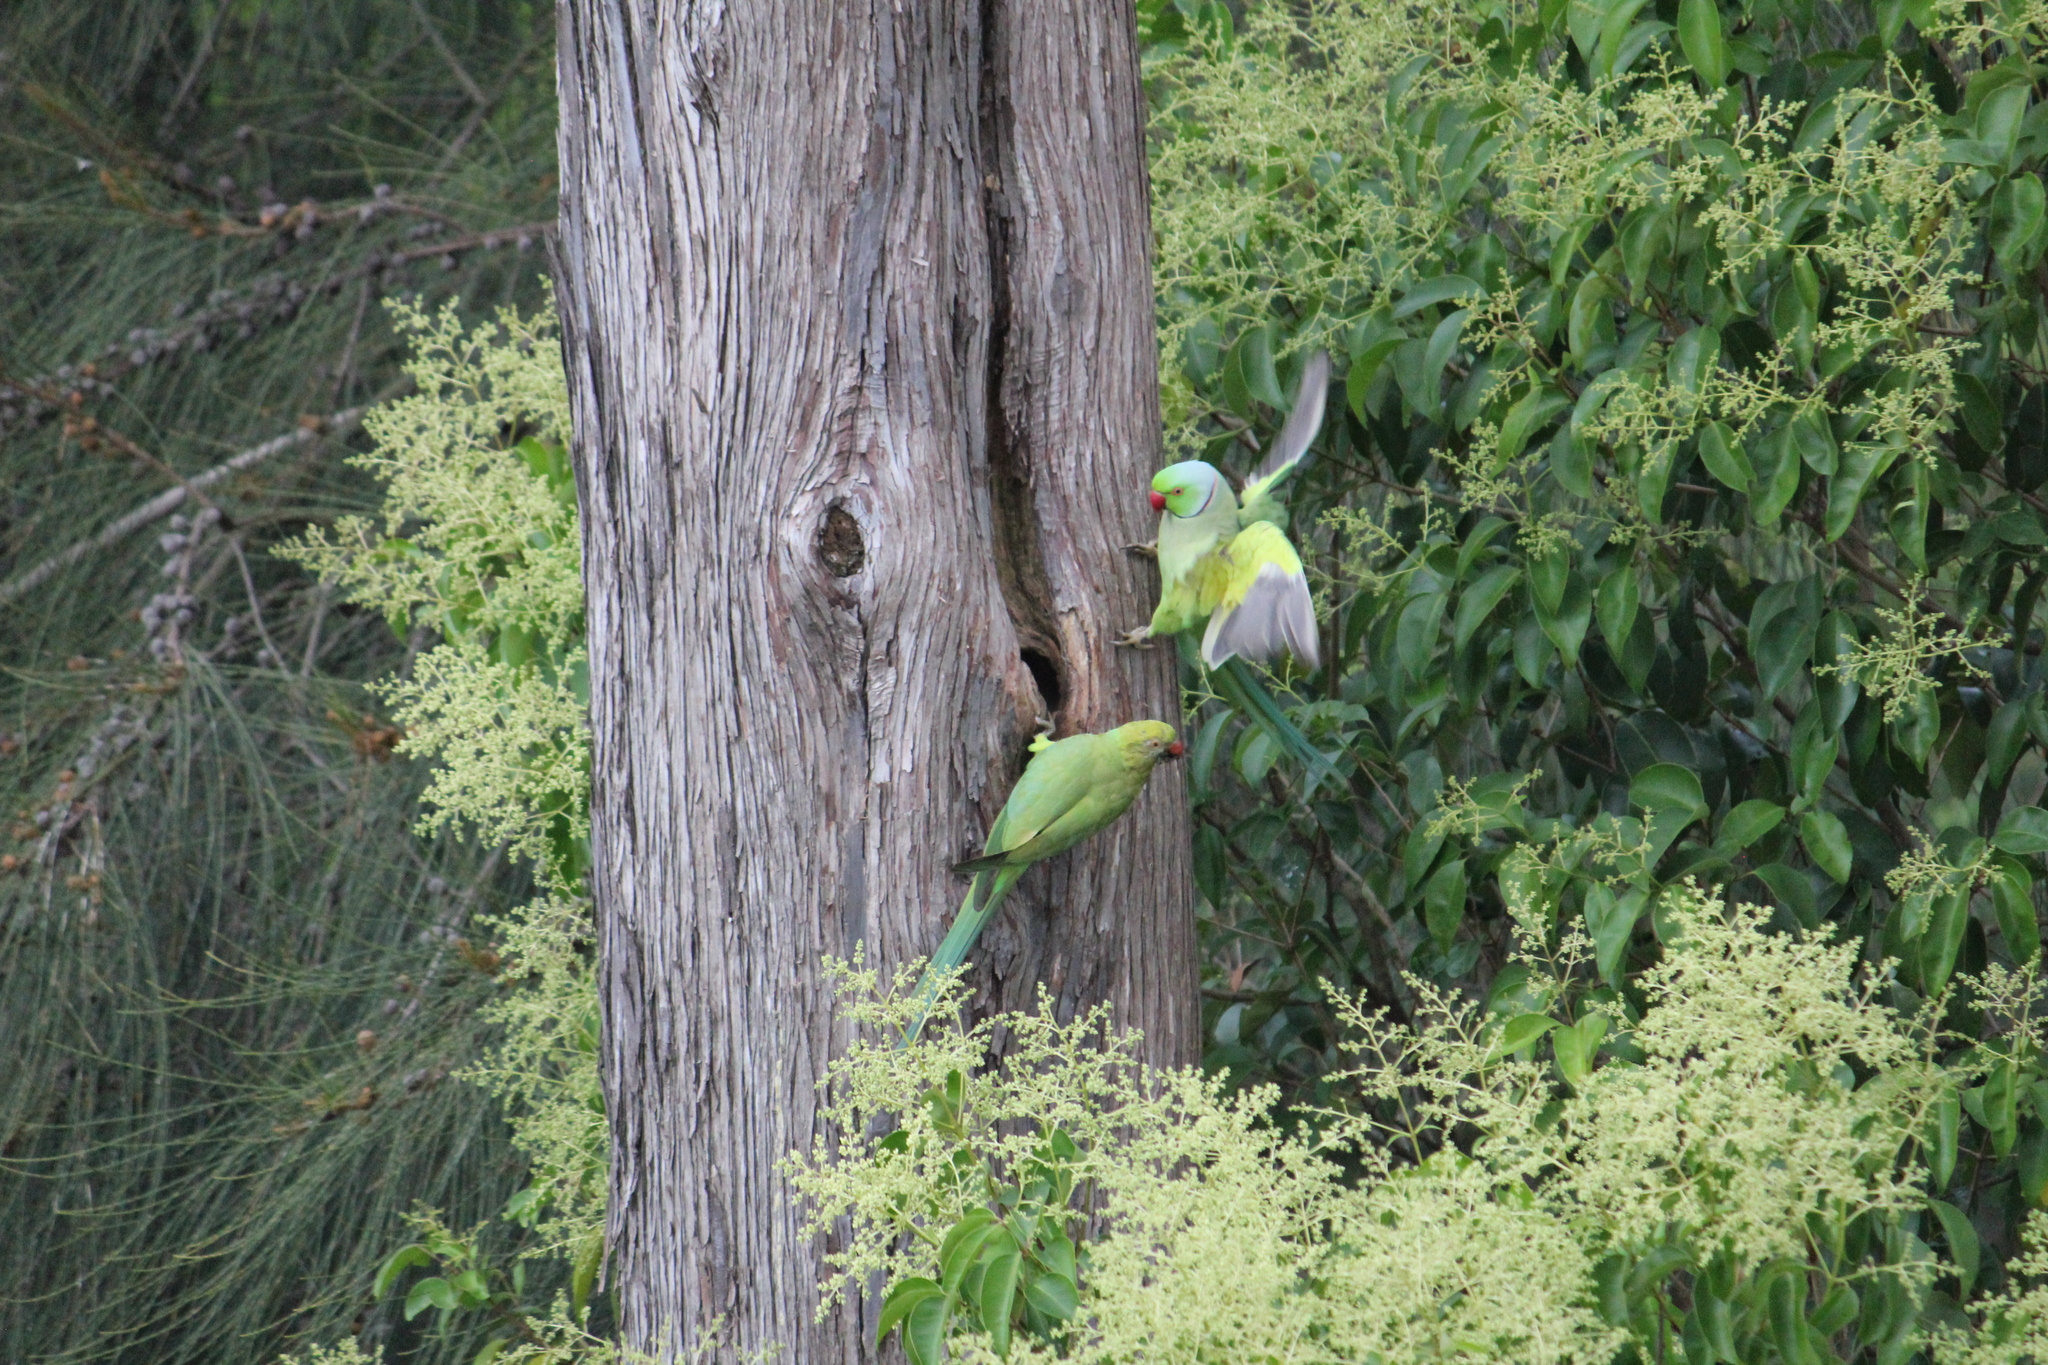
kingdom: Animalia
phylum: Chordata
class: Aves
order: Psittaciformes
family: Psittacidae
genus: Psittacula
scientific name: Psittacula krameri
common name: Rose-ringed parakeet
